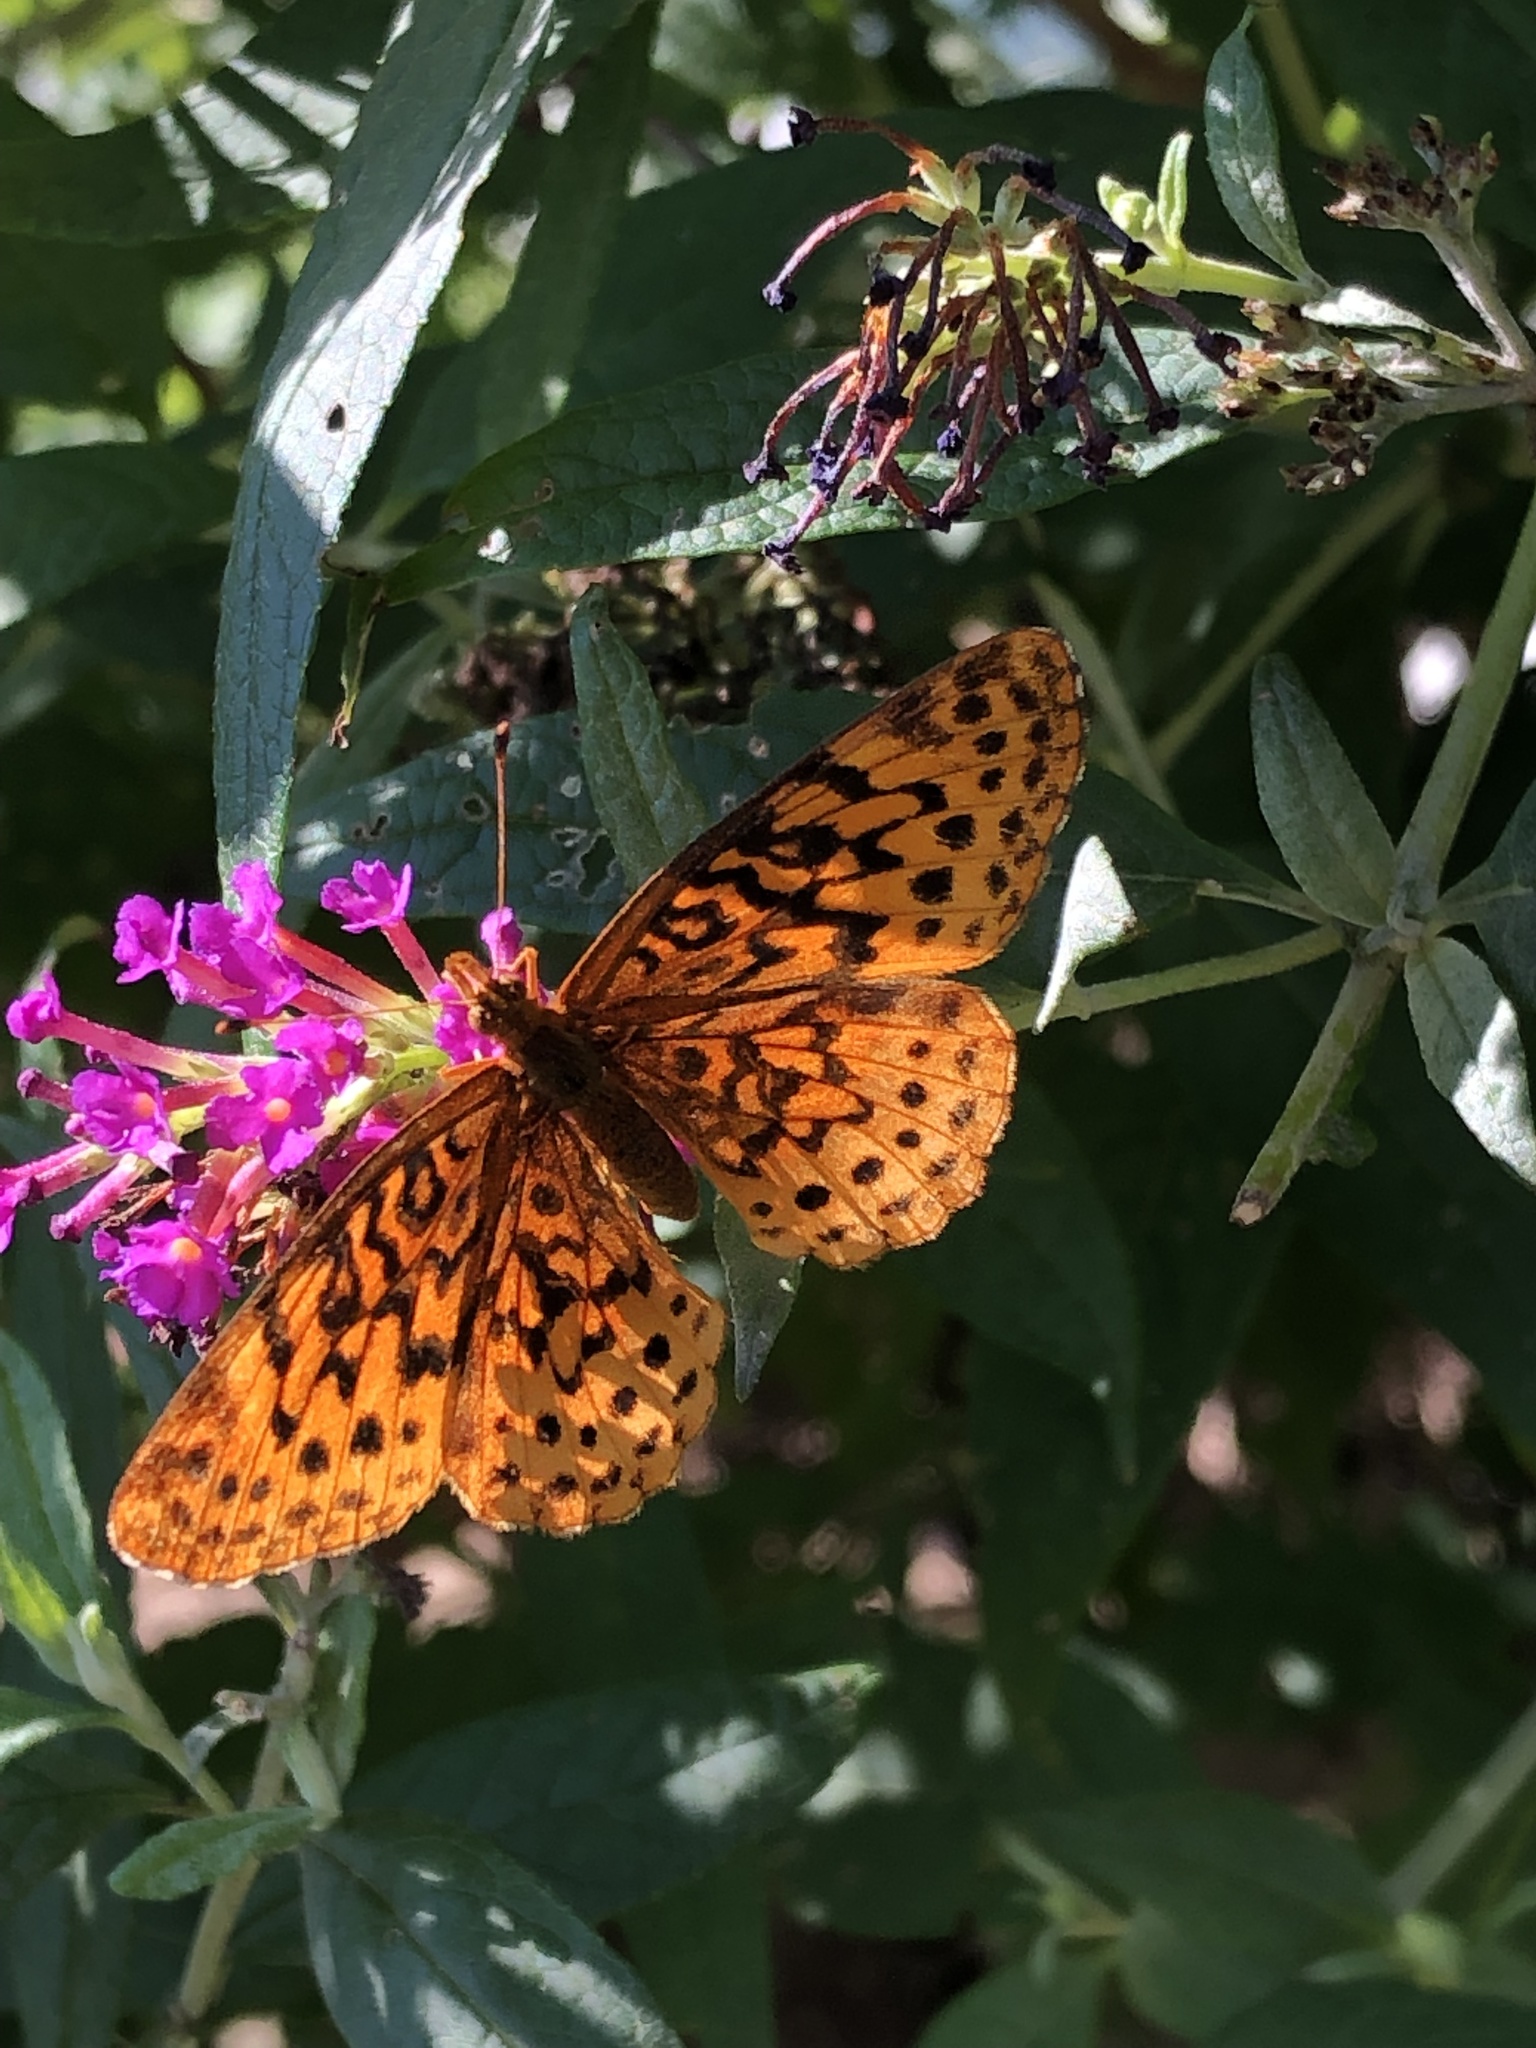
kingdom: Animalia
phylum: Arthropoda
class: Insecta
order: Lepidoptera
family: Nymphalidae
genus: Clossiana
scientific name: Clossiana toddi
